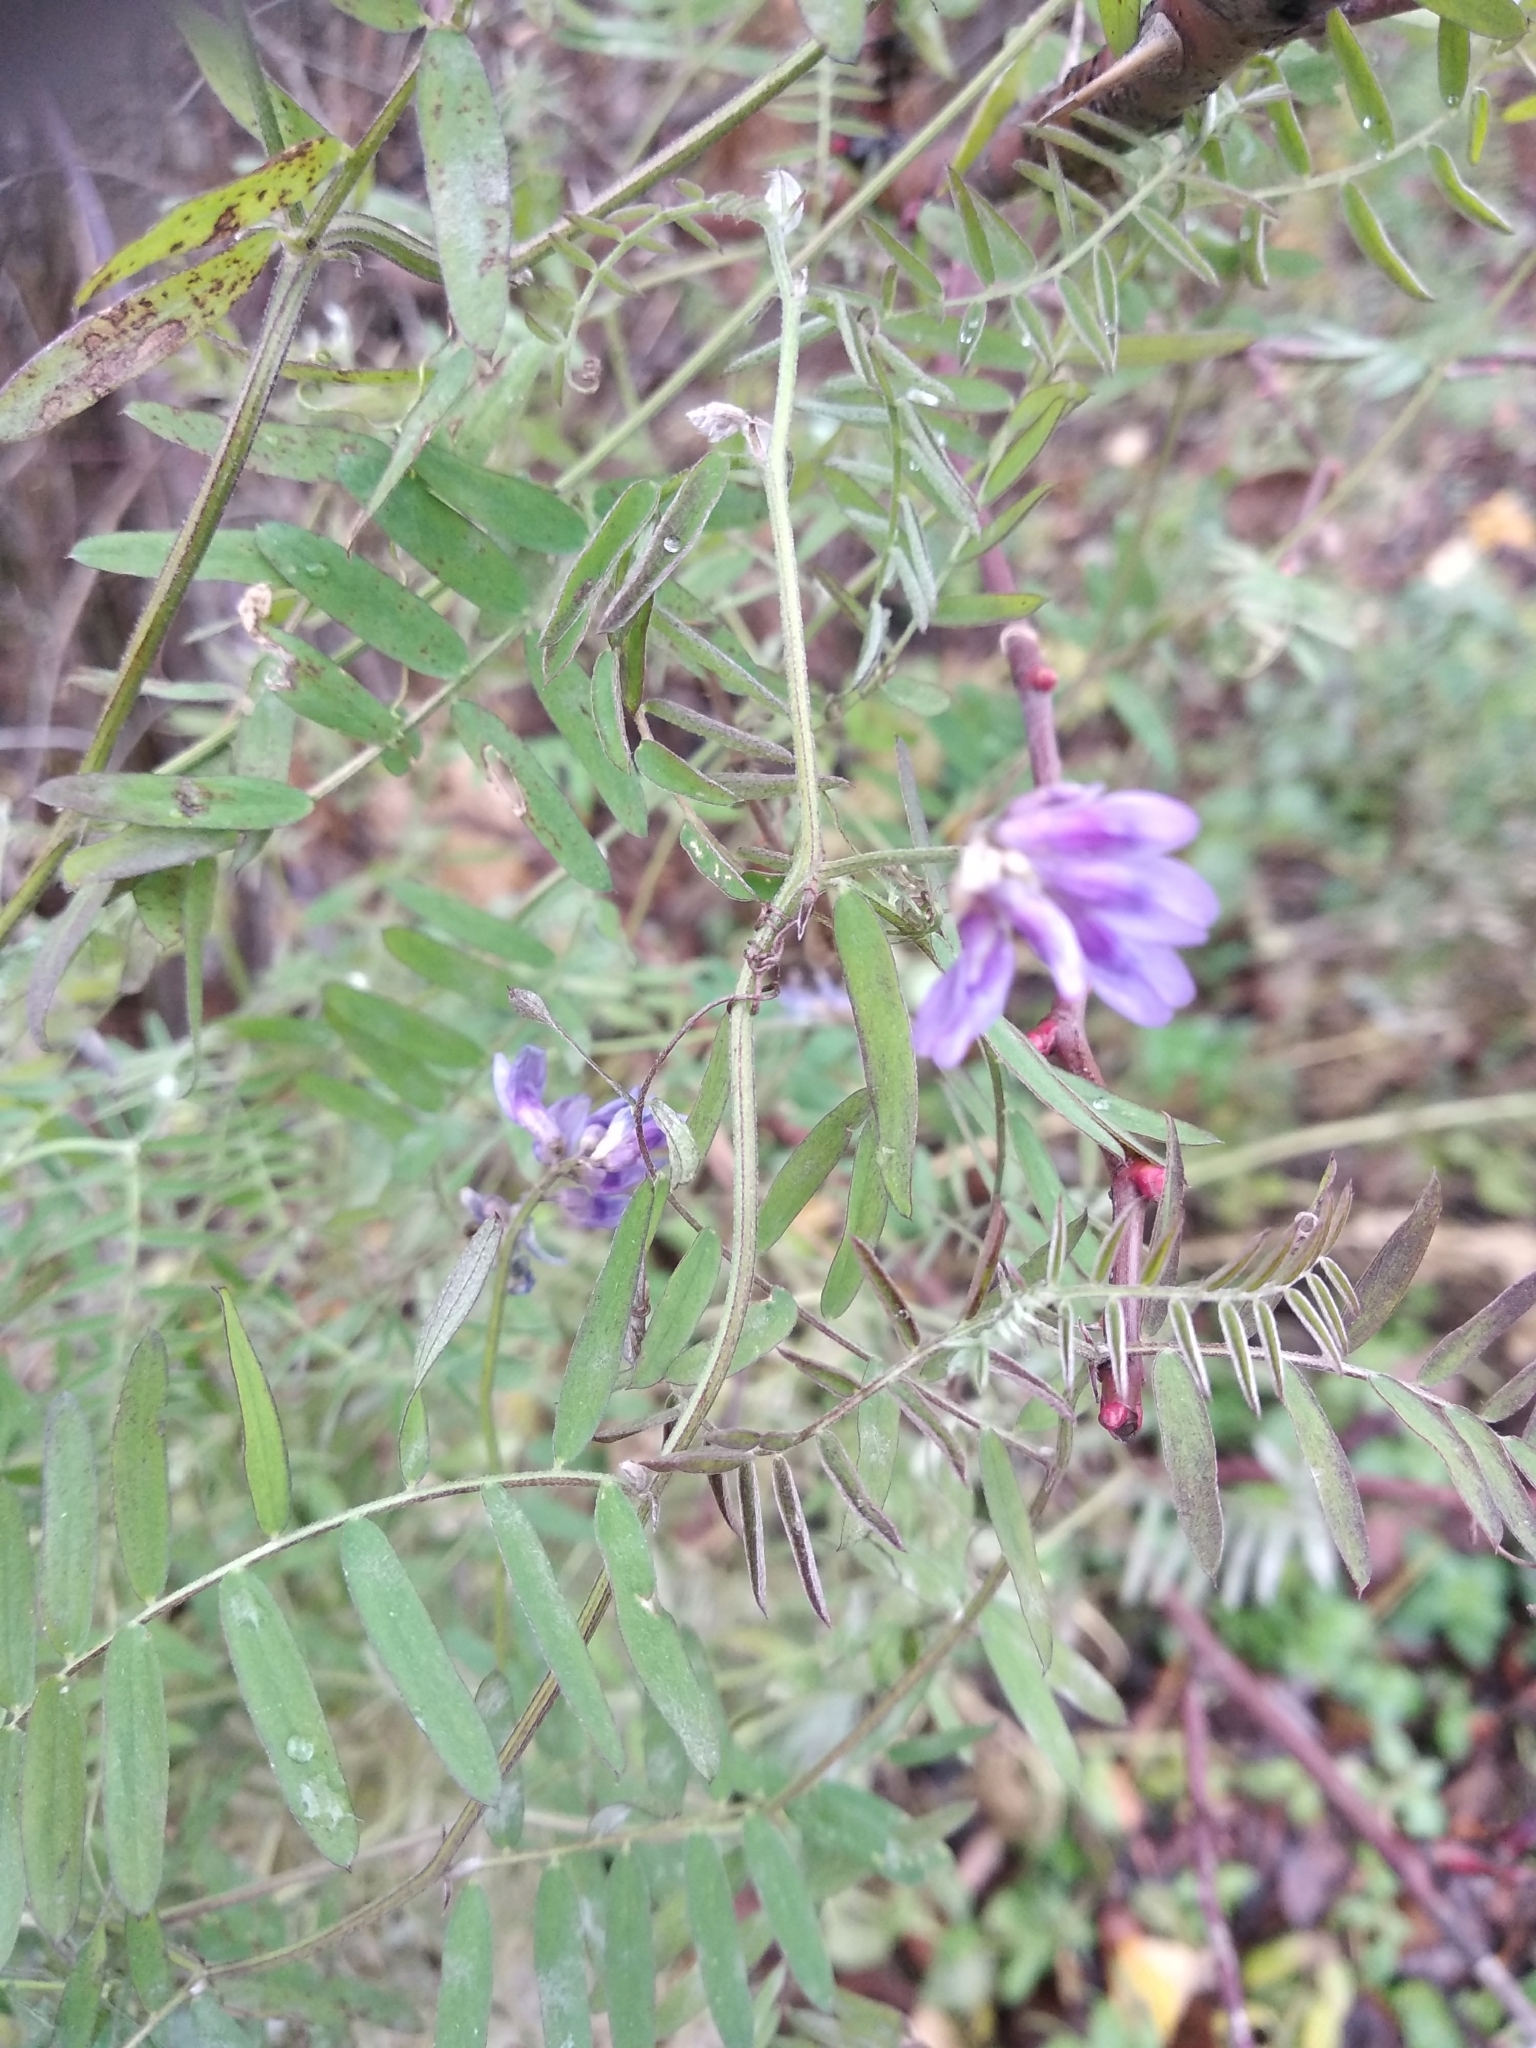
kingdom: Plantae
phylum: Tracheophyta
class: Magnoliopsida
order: Fabales
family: Fabaceae
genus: Vicia
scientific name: Vicia cracca
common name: Bird vetch
